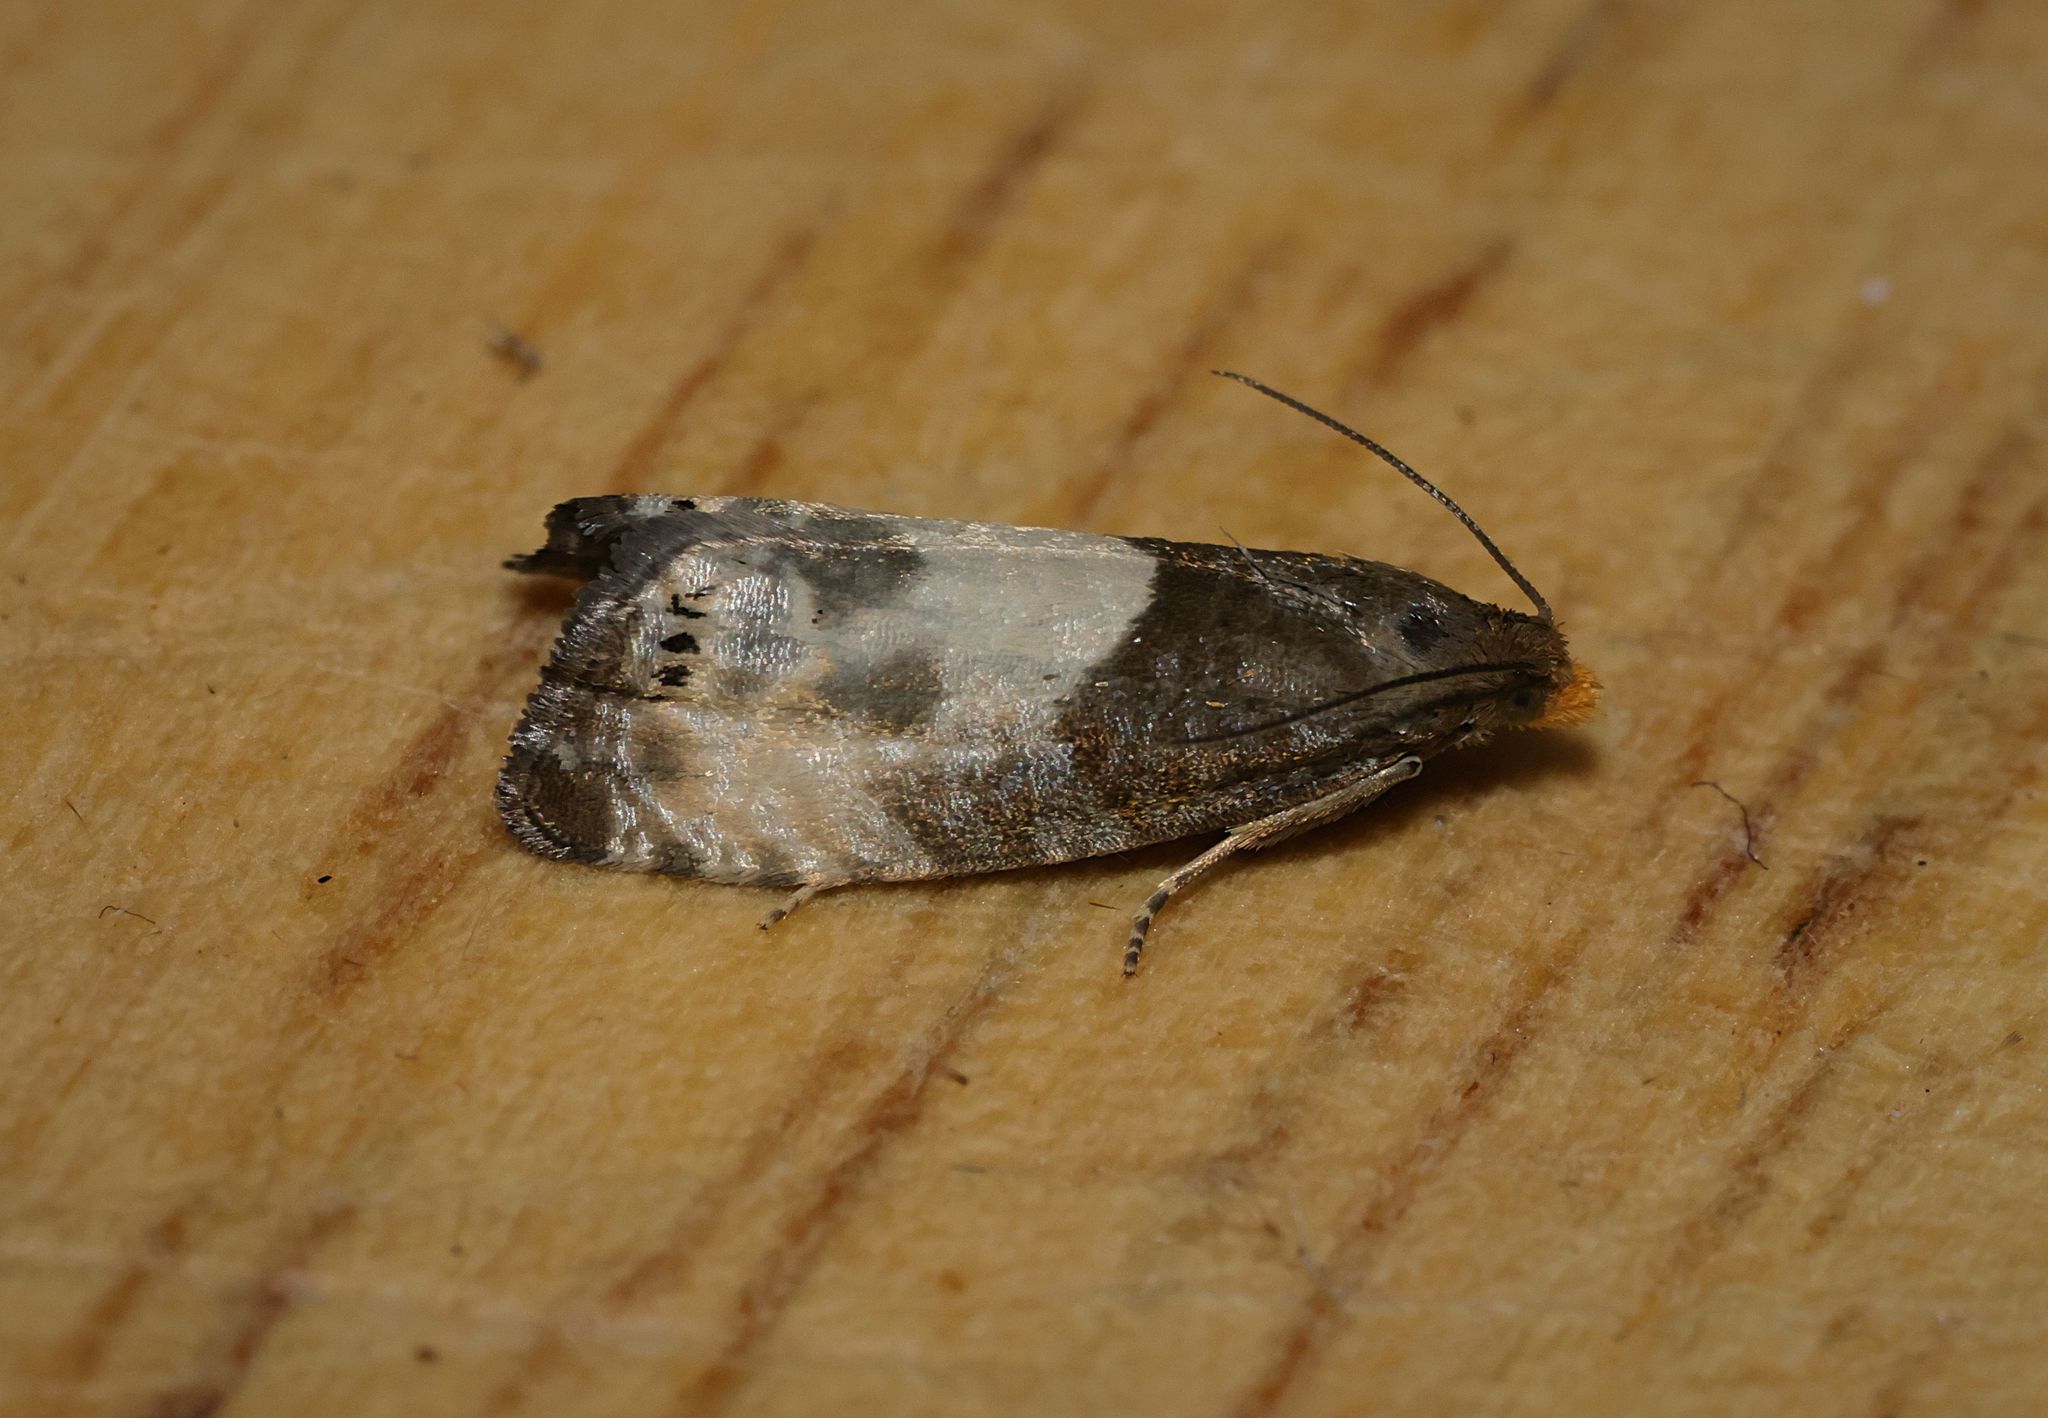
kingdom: Animalia
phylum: Arthropoda
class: Insecta
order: Lepidoptera
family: Tortricidae
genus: Notocelia
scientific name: Notocelia cynosbatella
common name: Yellow-faced bell moth
